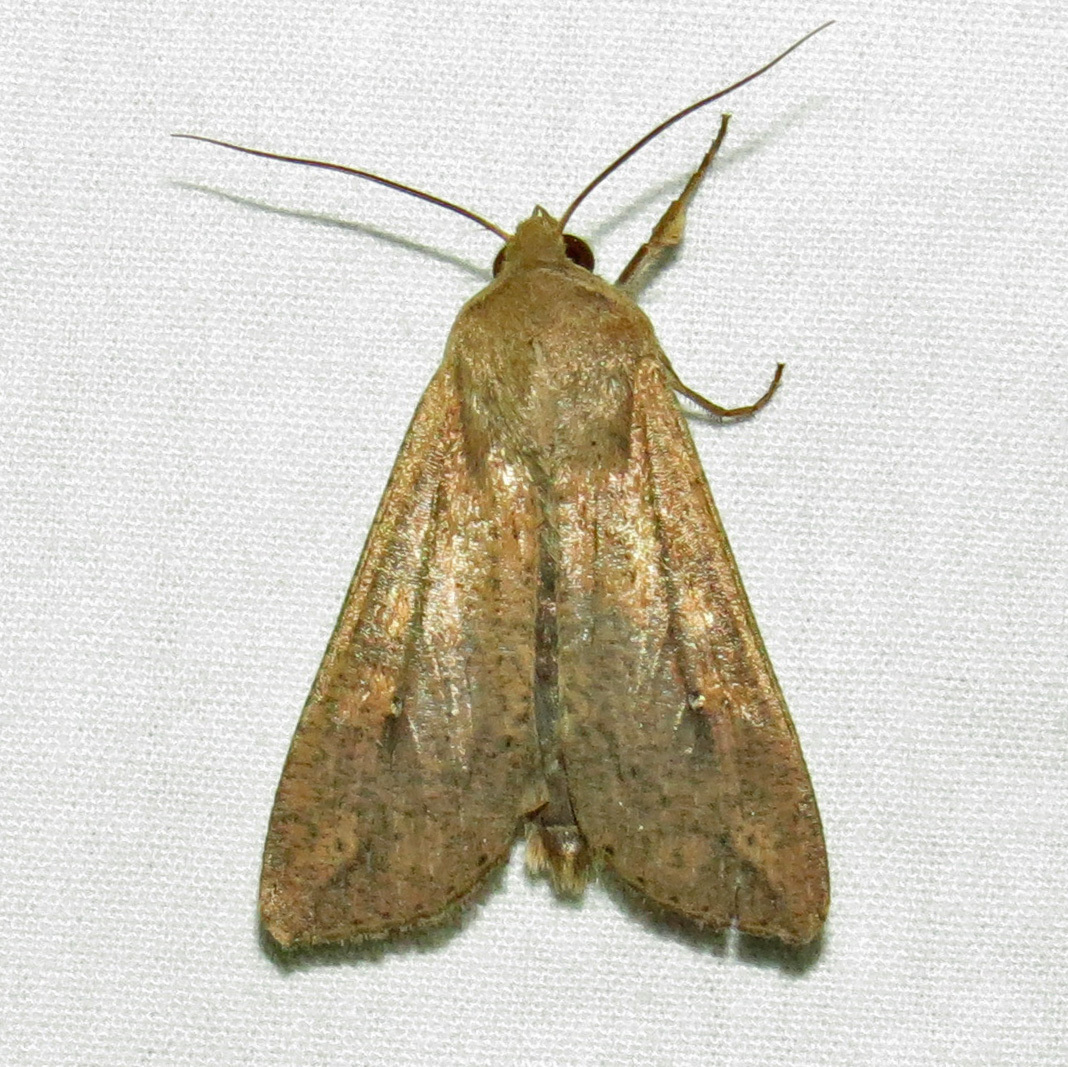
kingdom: Animalia
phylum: Arthropoda
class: Insecta
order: Lepidoptera
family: Noctuidae
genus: Mythimna
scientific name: Mythimna unipuncta
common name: White-speck
